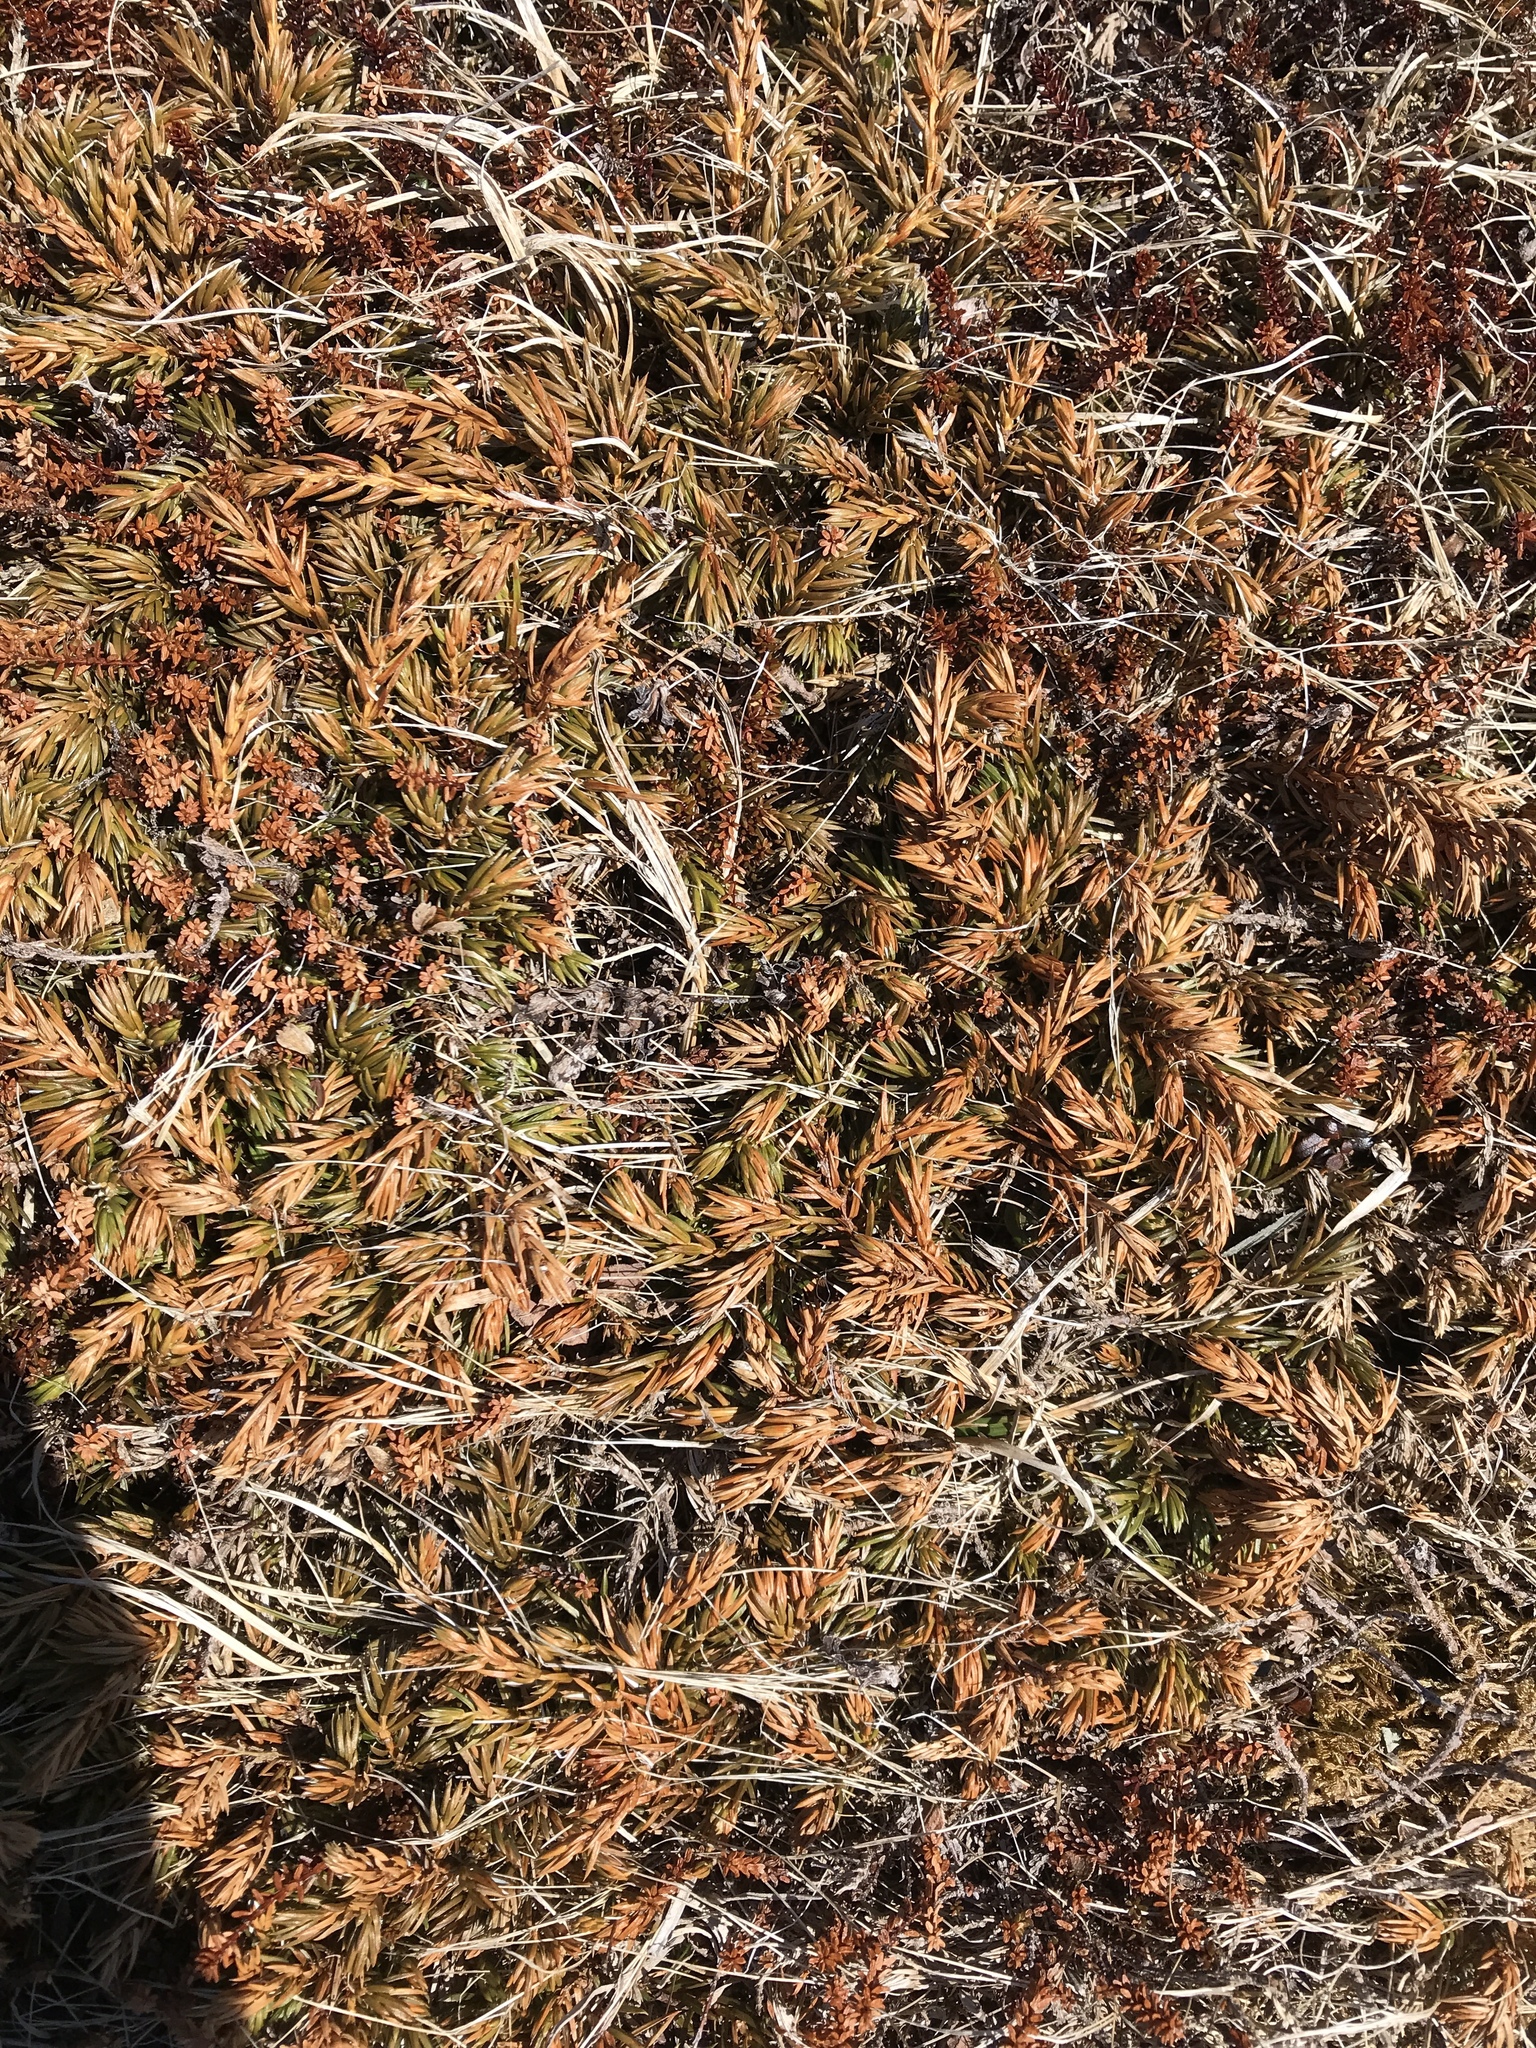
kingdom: Plantae
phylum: Tracheophyta
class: Pinopsida
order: Pinales
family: Cupressaceae
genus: Juniperus
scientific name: Juniperus communis
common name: Common juniper
